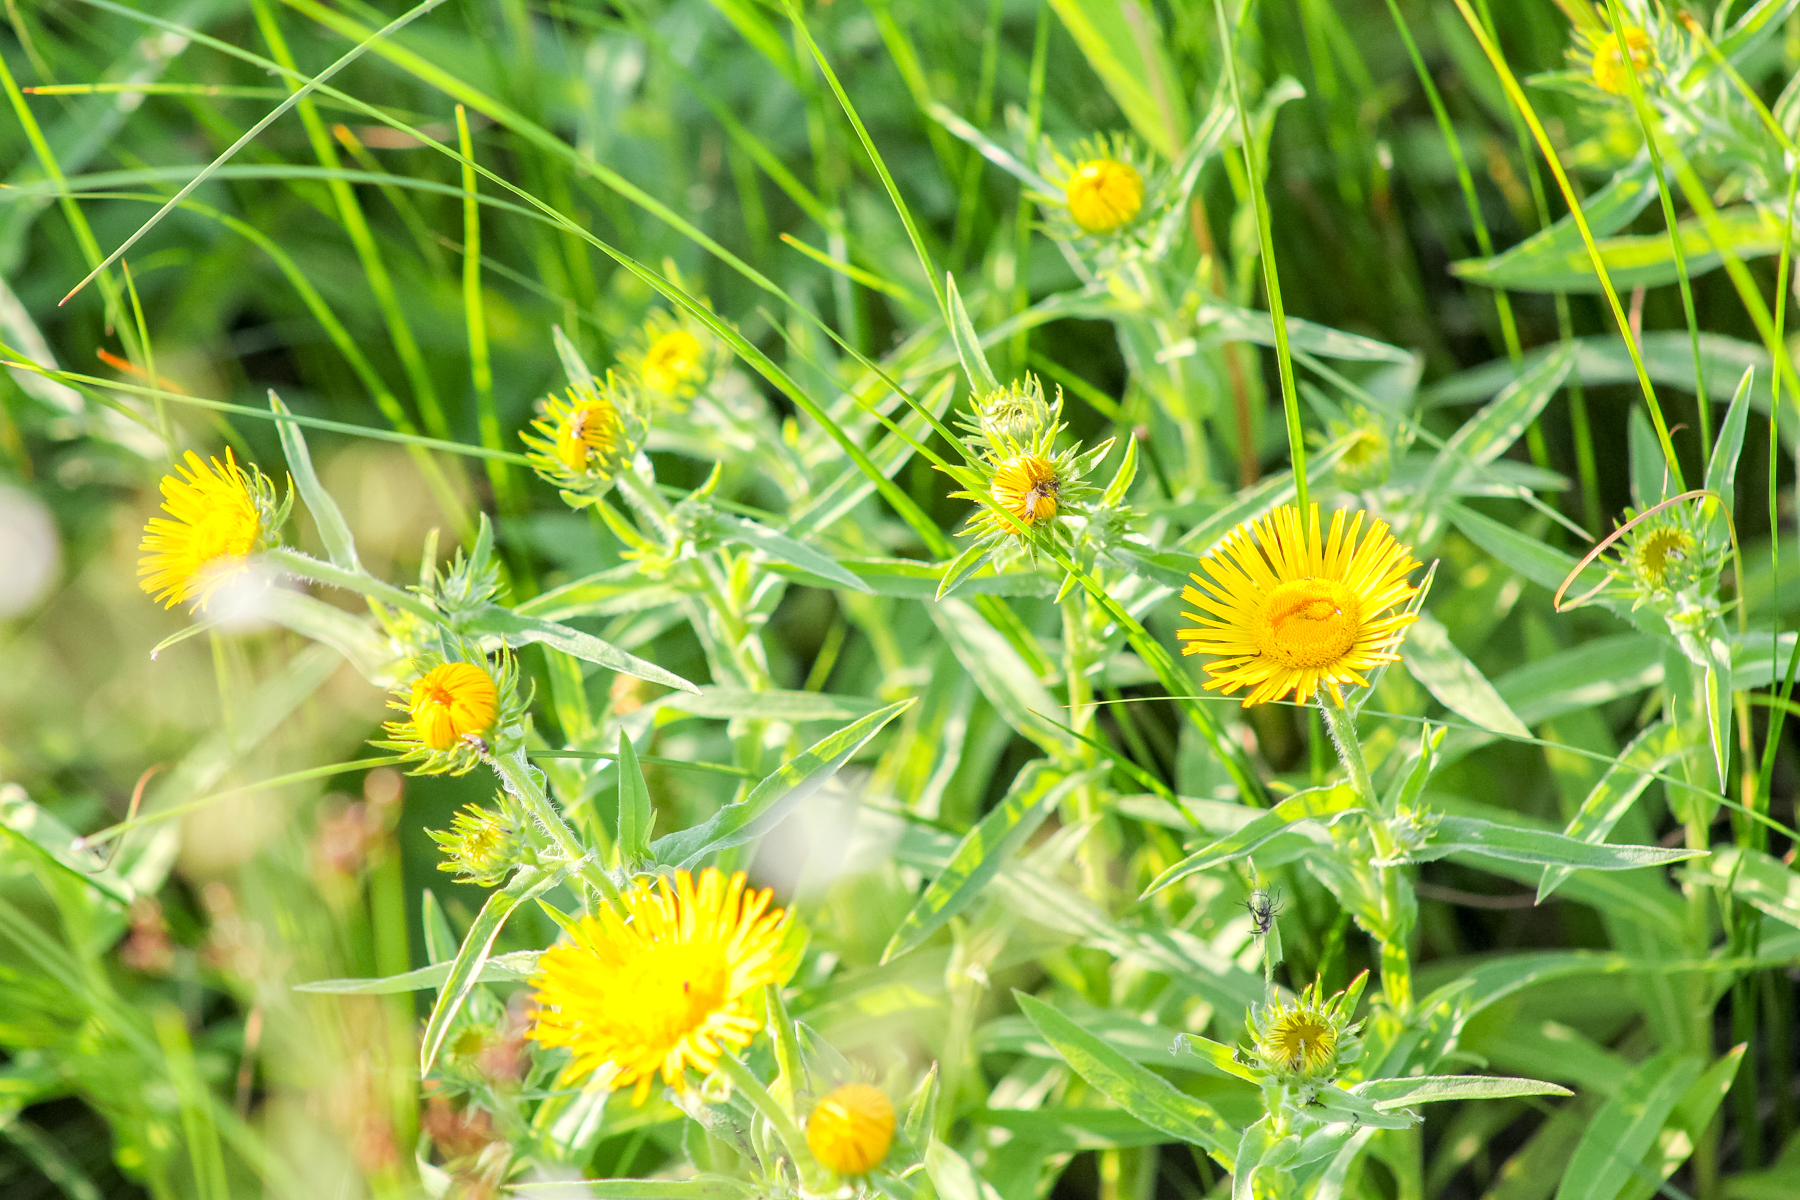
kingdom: Plantae
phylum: Tracheophyta
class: Magnoliopsida
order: Asterales
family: Asteraceae
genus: Pentanema
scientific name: Pentanema britannicum
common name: British elecampane
